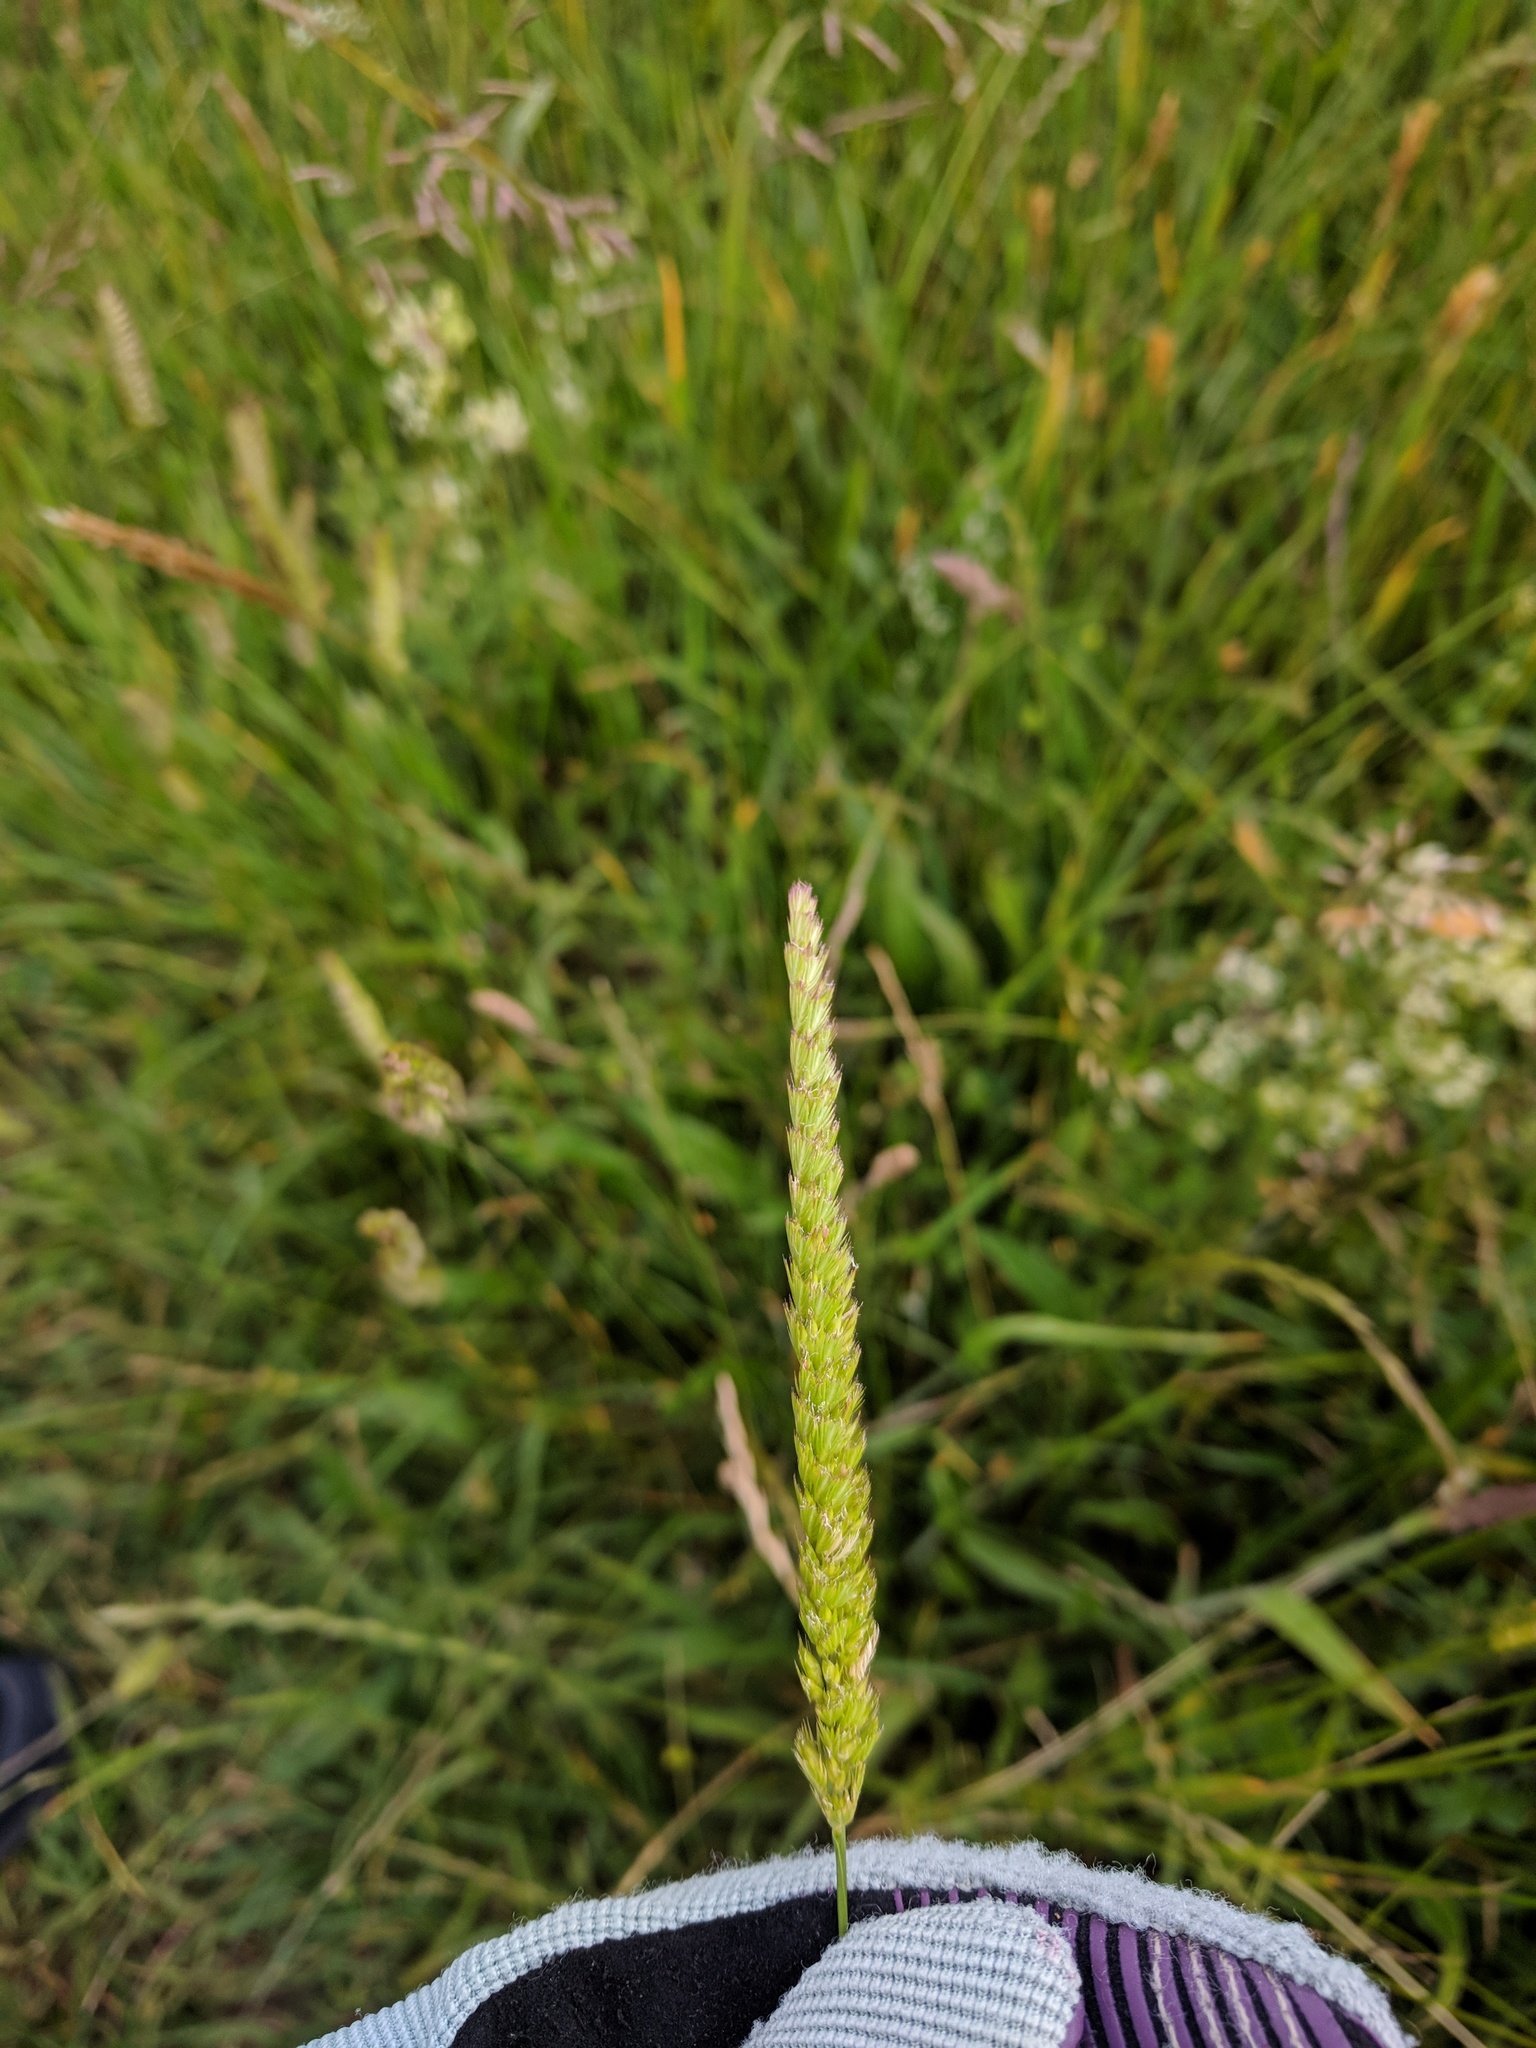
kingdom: Plantae
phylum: Tracheophyta
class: Liliopsida
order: Poales
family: Poaceae
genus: Cynosurus
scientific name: Cynosurus cristatus
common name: Crested dog's-tail
